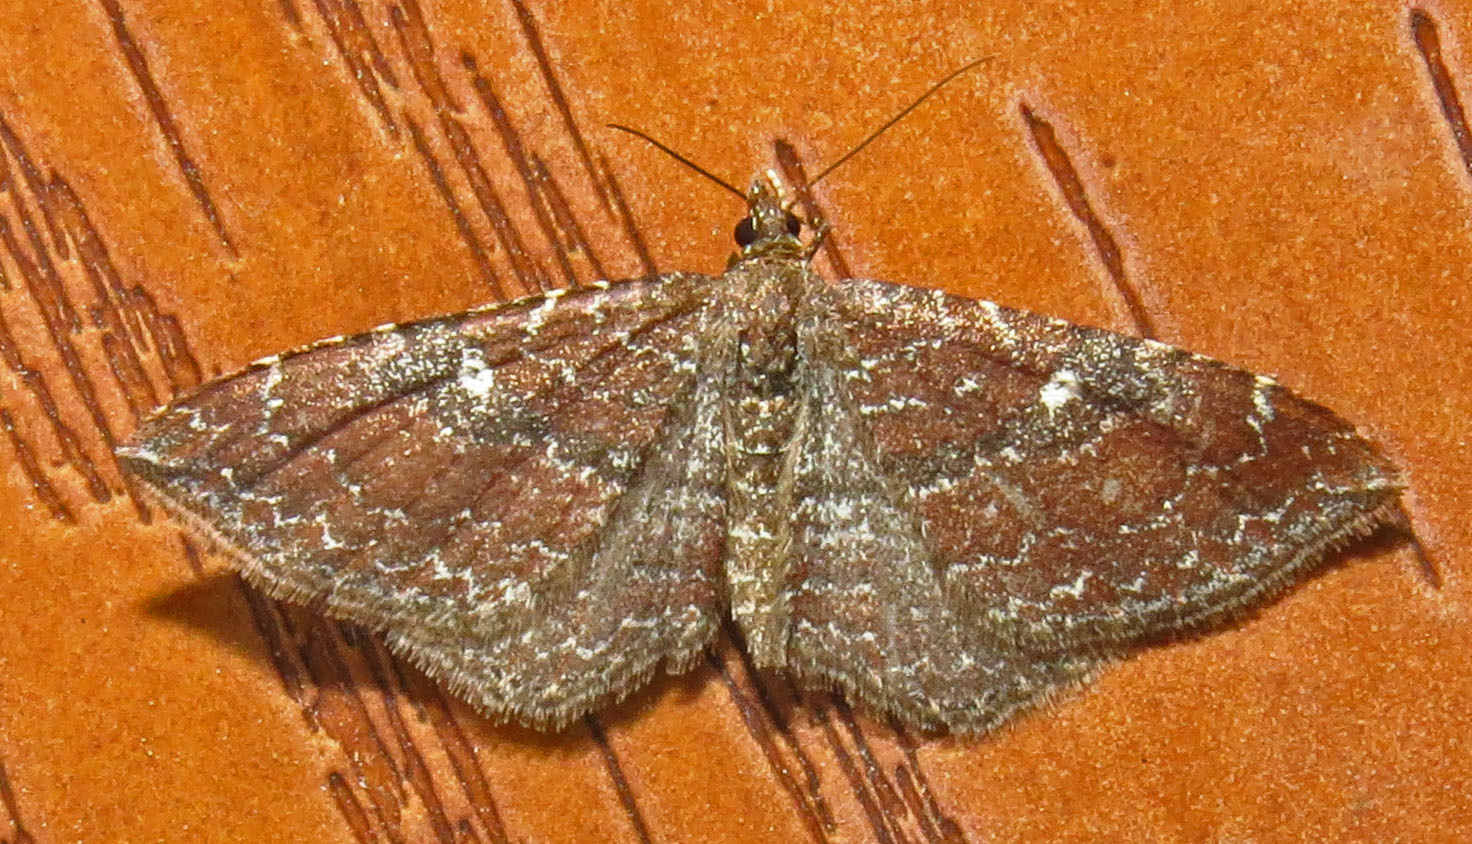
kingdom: Animalia
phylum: Arthropoda
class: Insecta
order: Lepidoptera
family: Geometridae
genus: Orthonama
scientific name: Orthonama obstipata
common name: The gem
